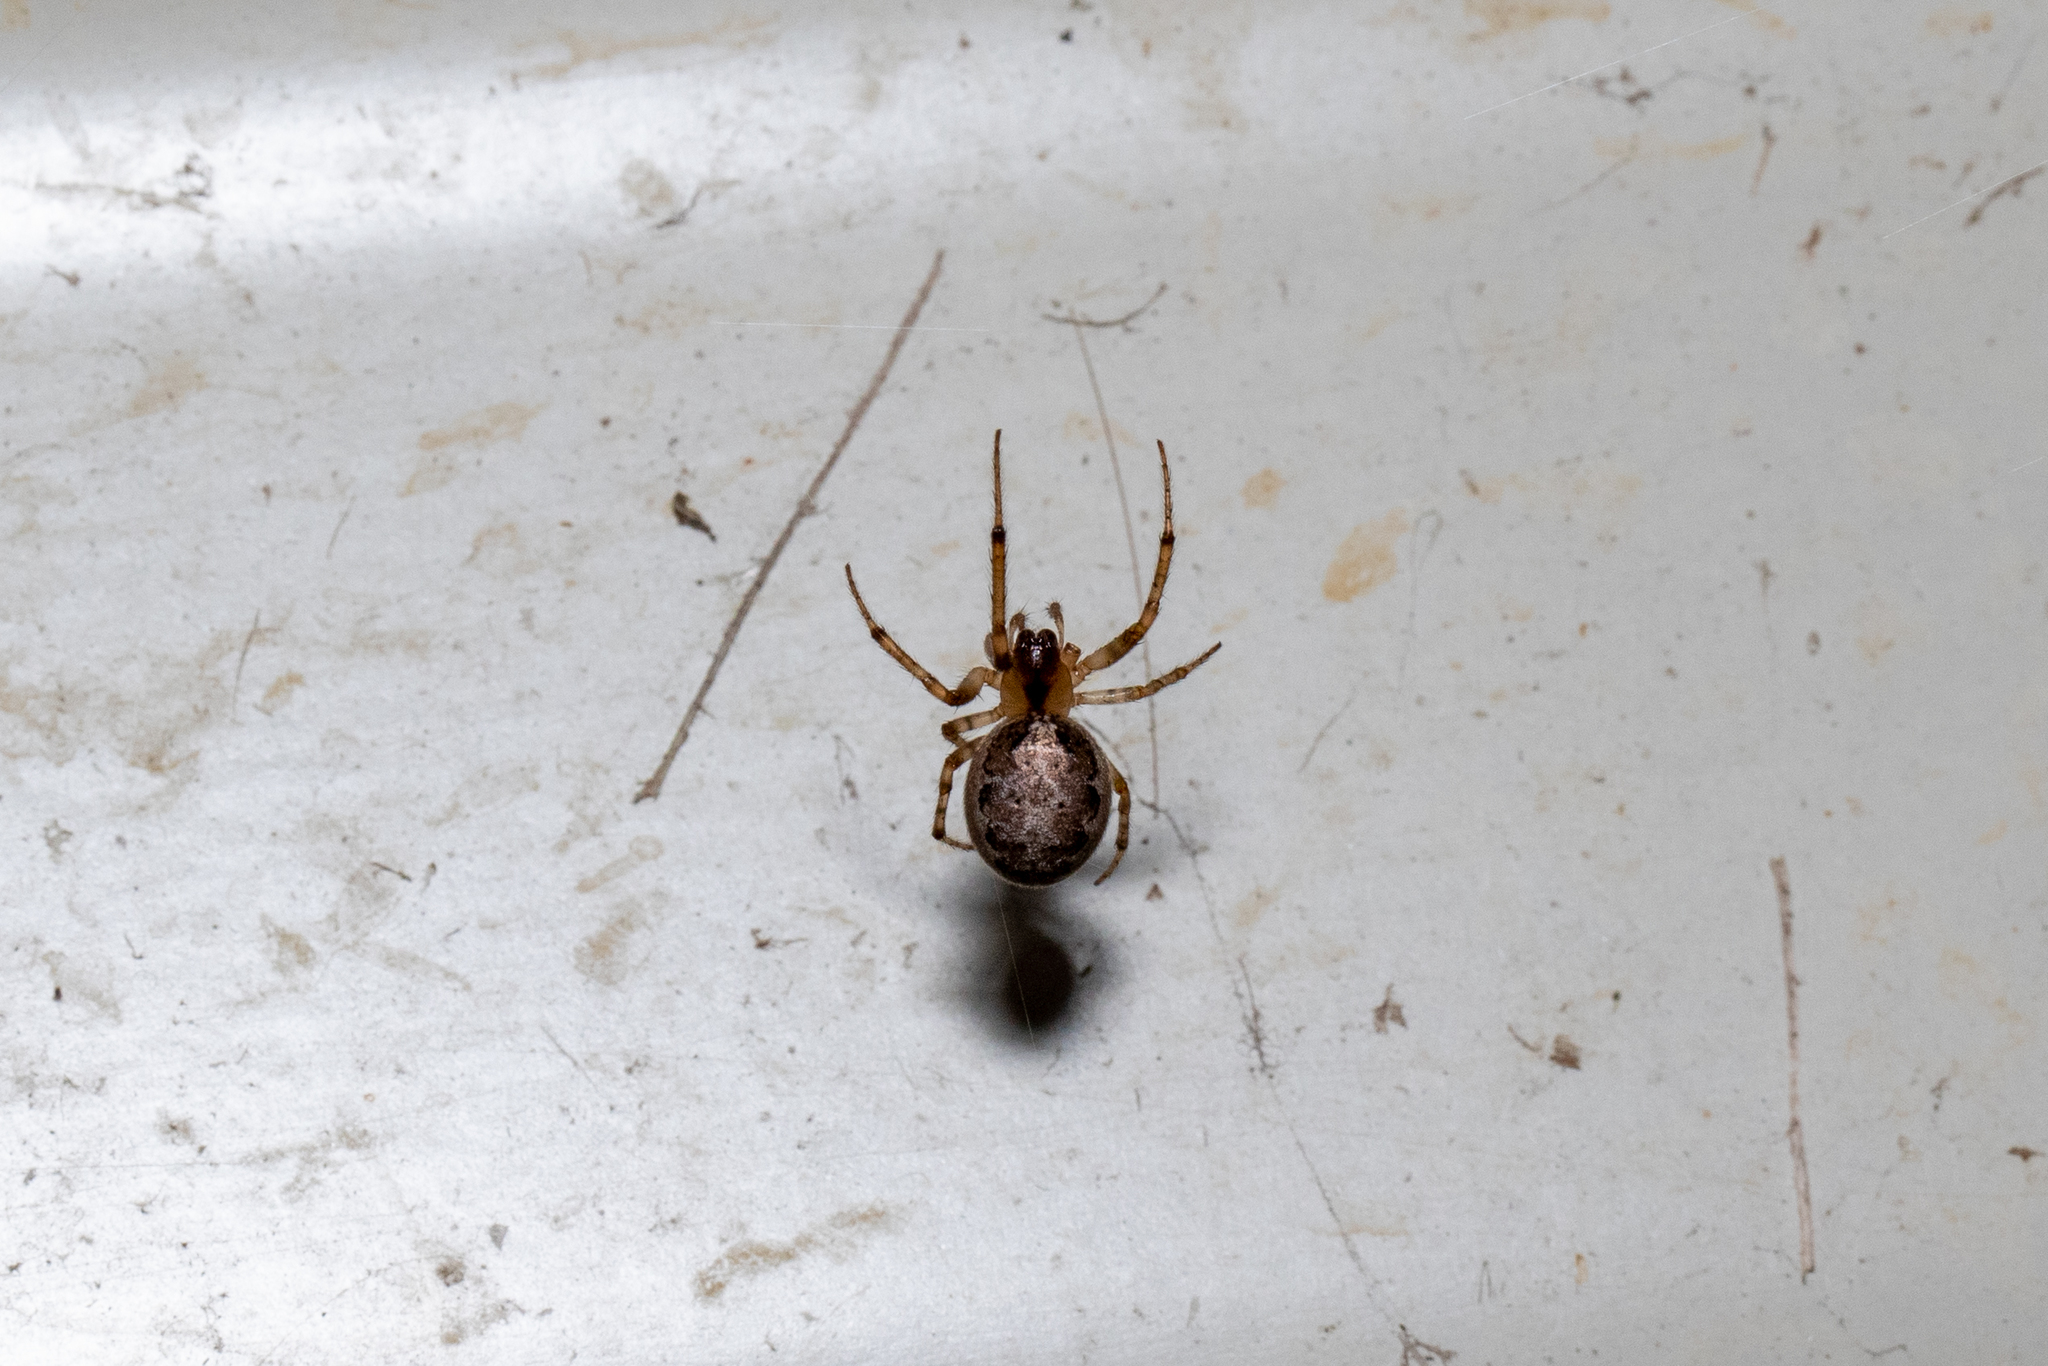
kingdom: Animalia
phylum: Arthropoda
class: Arachnida
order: Araneae
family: Araneidae
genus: Zygiella
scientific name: Zygiella x-notata
